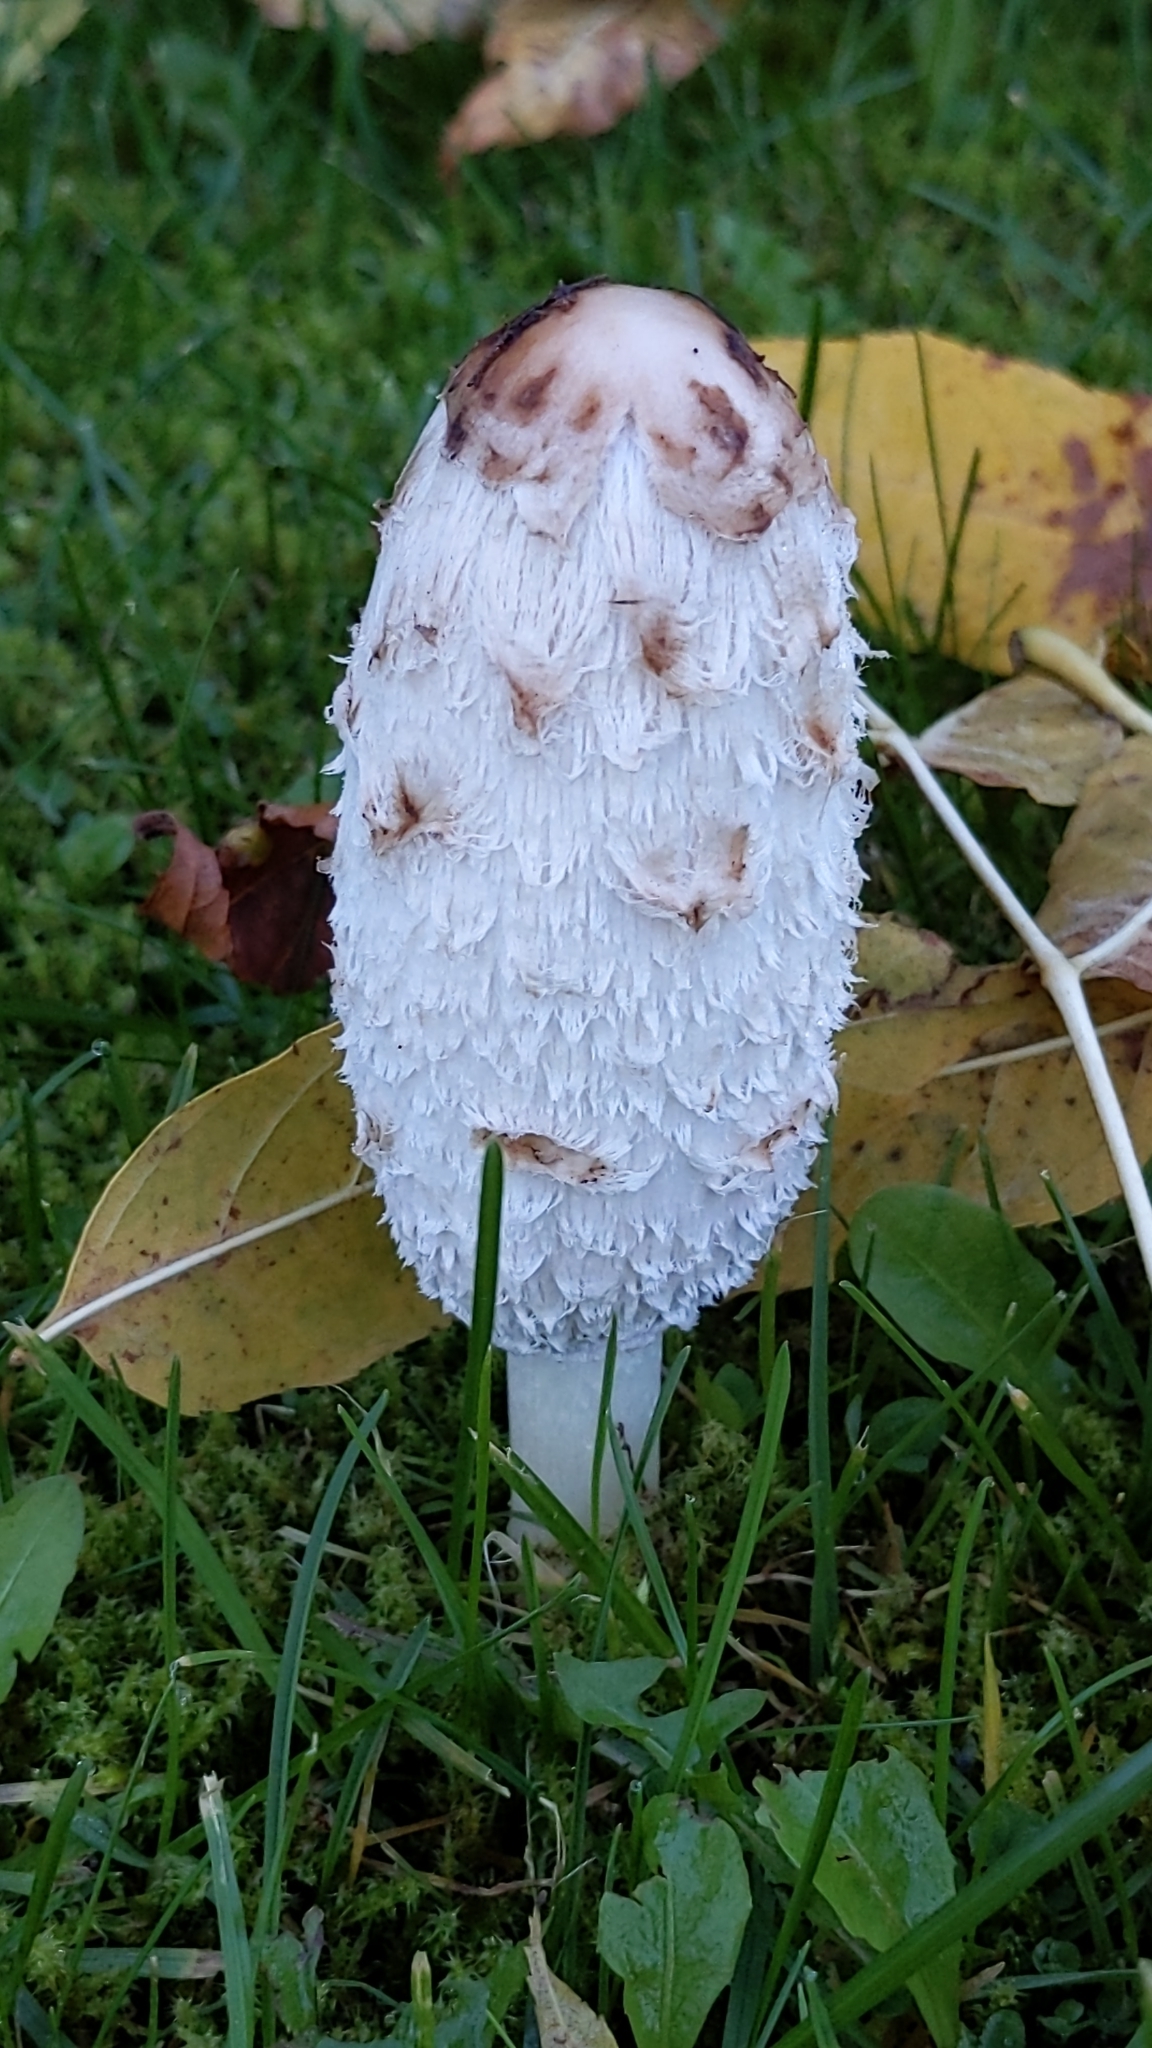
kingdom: Fungi
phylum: Basidiomycota
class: Agaricomycetes
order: Agaricales
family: Agaricaceae
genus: Coprinus
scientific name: Coprinus comatus
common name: Lawyer's wig
